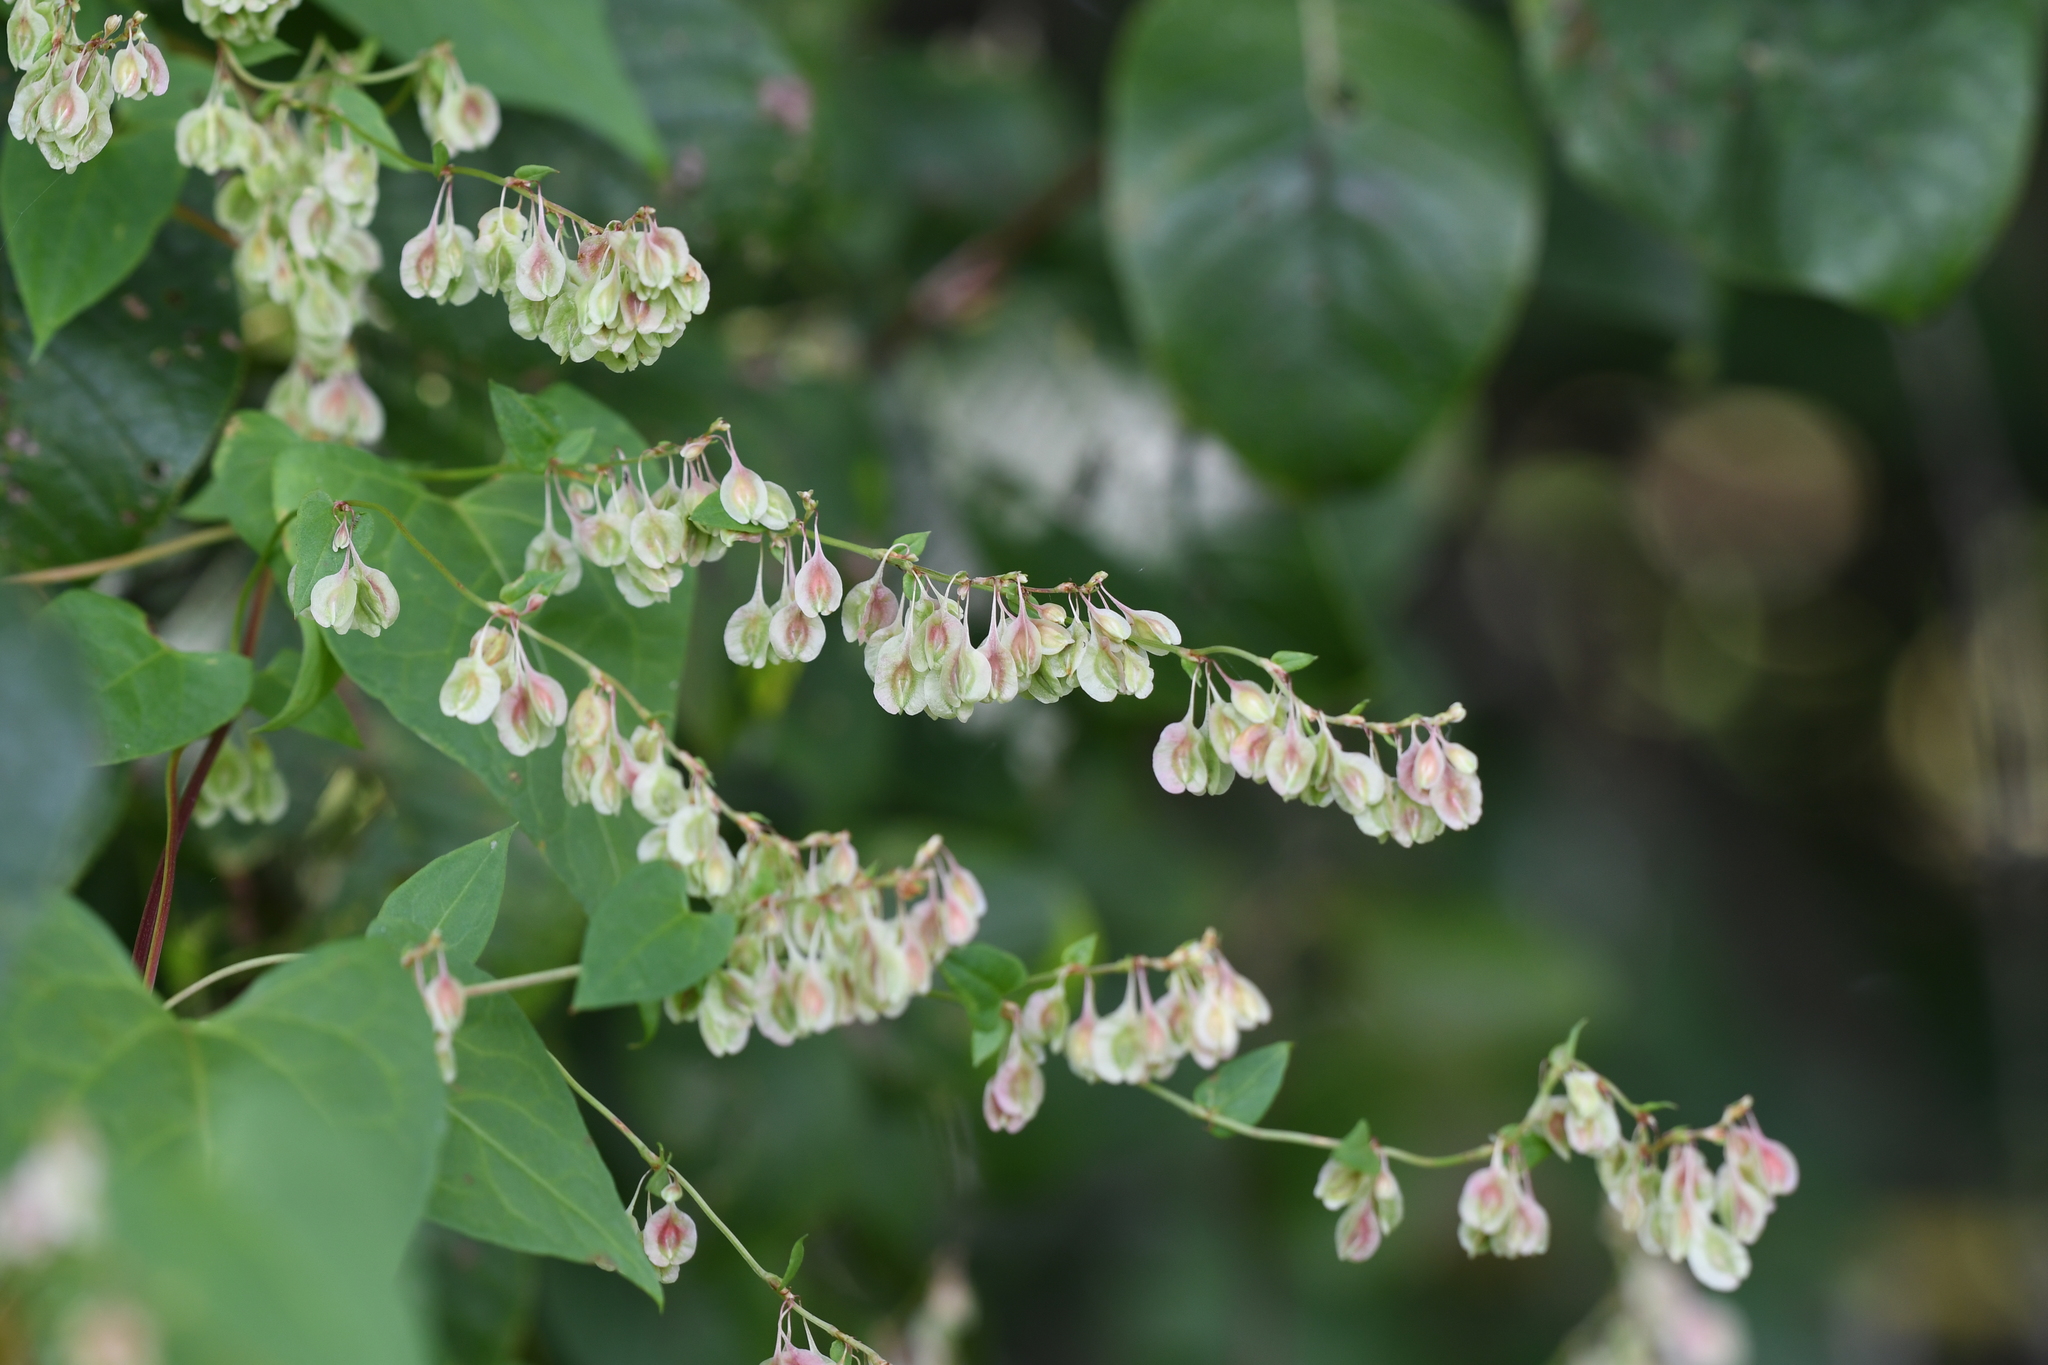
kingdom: Plantae
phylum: Tracheophyta
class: Magnoliopsida
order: Caryophyllales
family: Polygonaceae
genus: Fallopia
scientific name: Fallopia dumetorum
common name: Copse-bindweed
